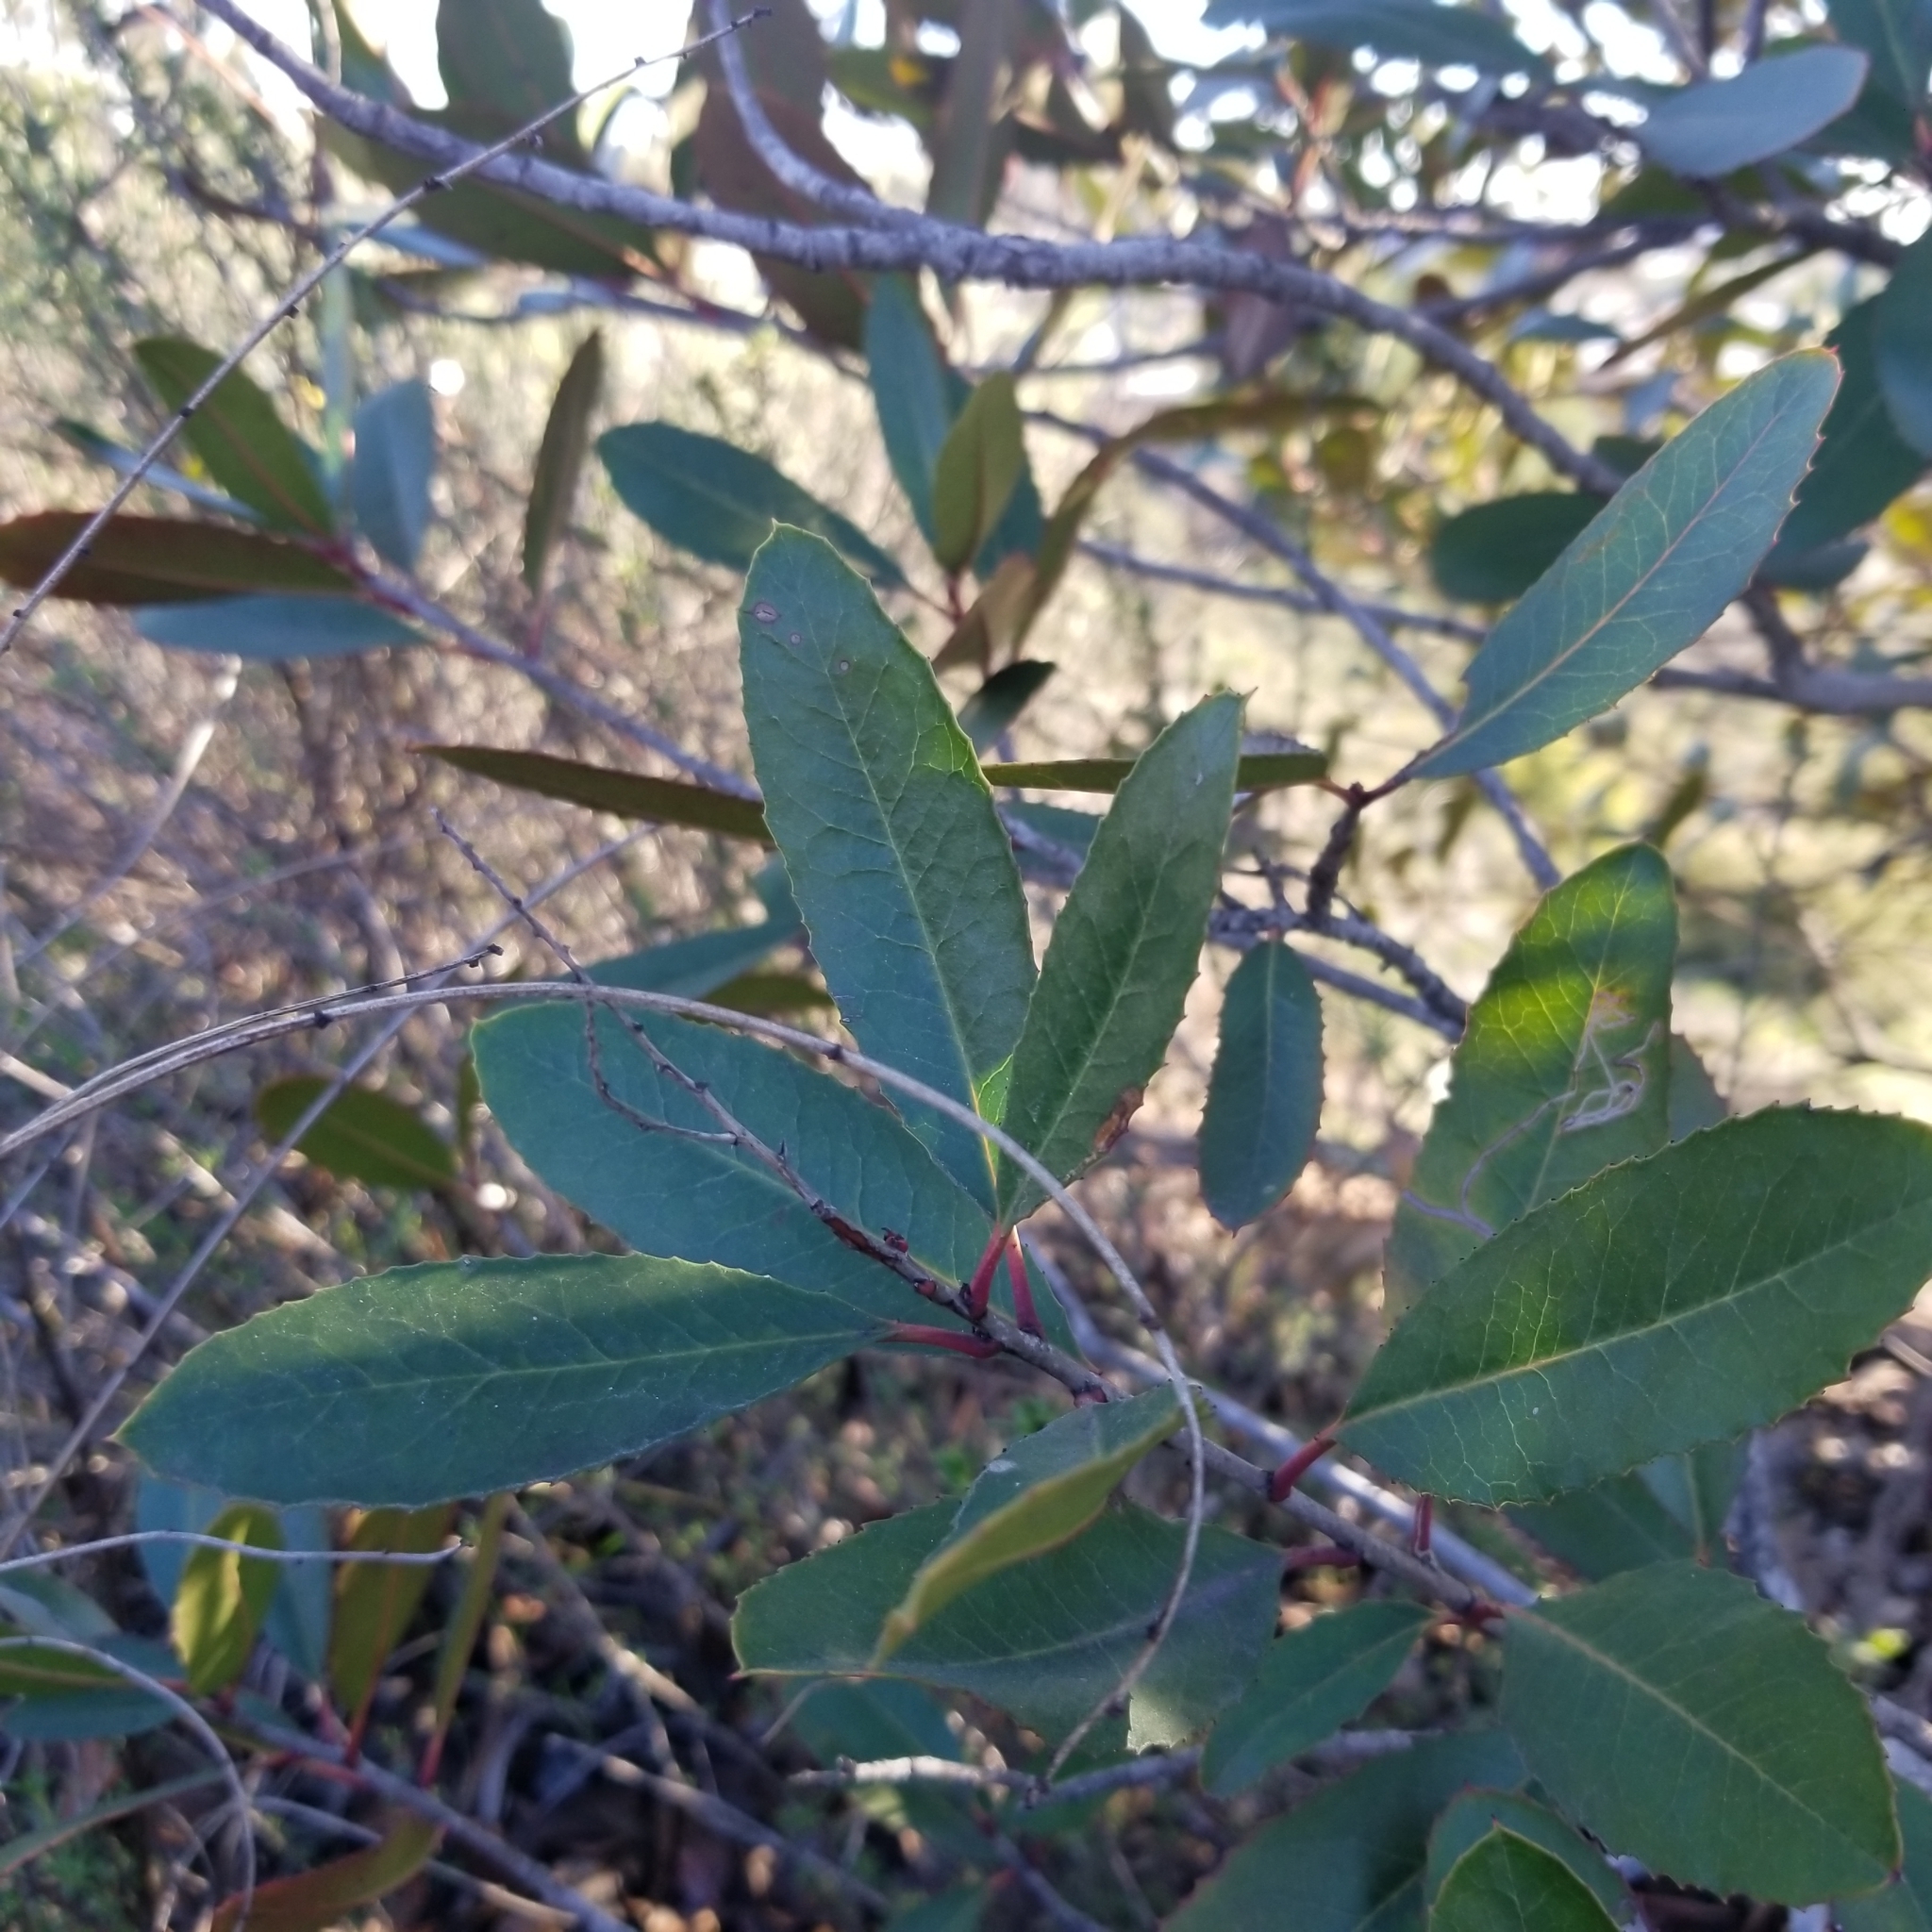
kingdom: Plantae
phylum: Tracheophyta
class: Magnoliopsida
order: Rosales
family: Rosaceae
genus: Heteromeles
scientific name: Heteromeles arbutifolia
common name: California-holly
